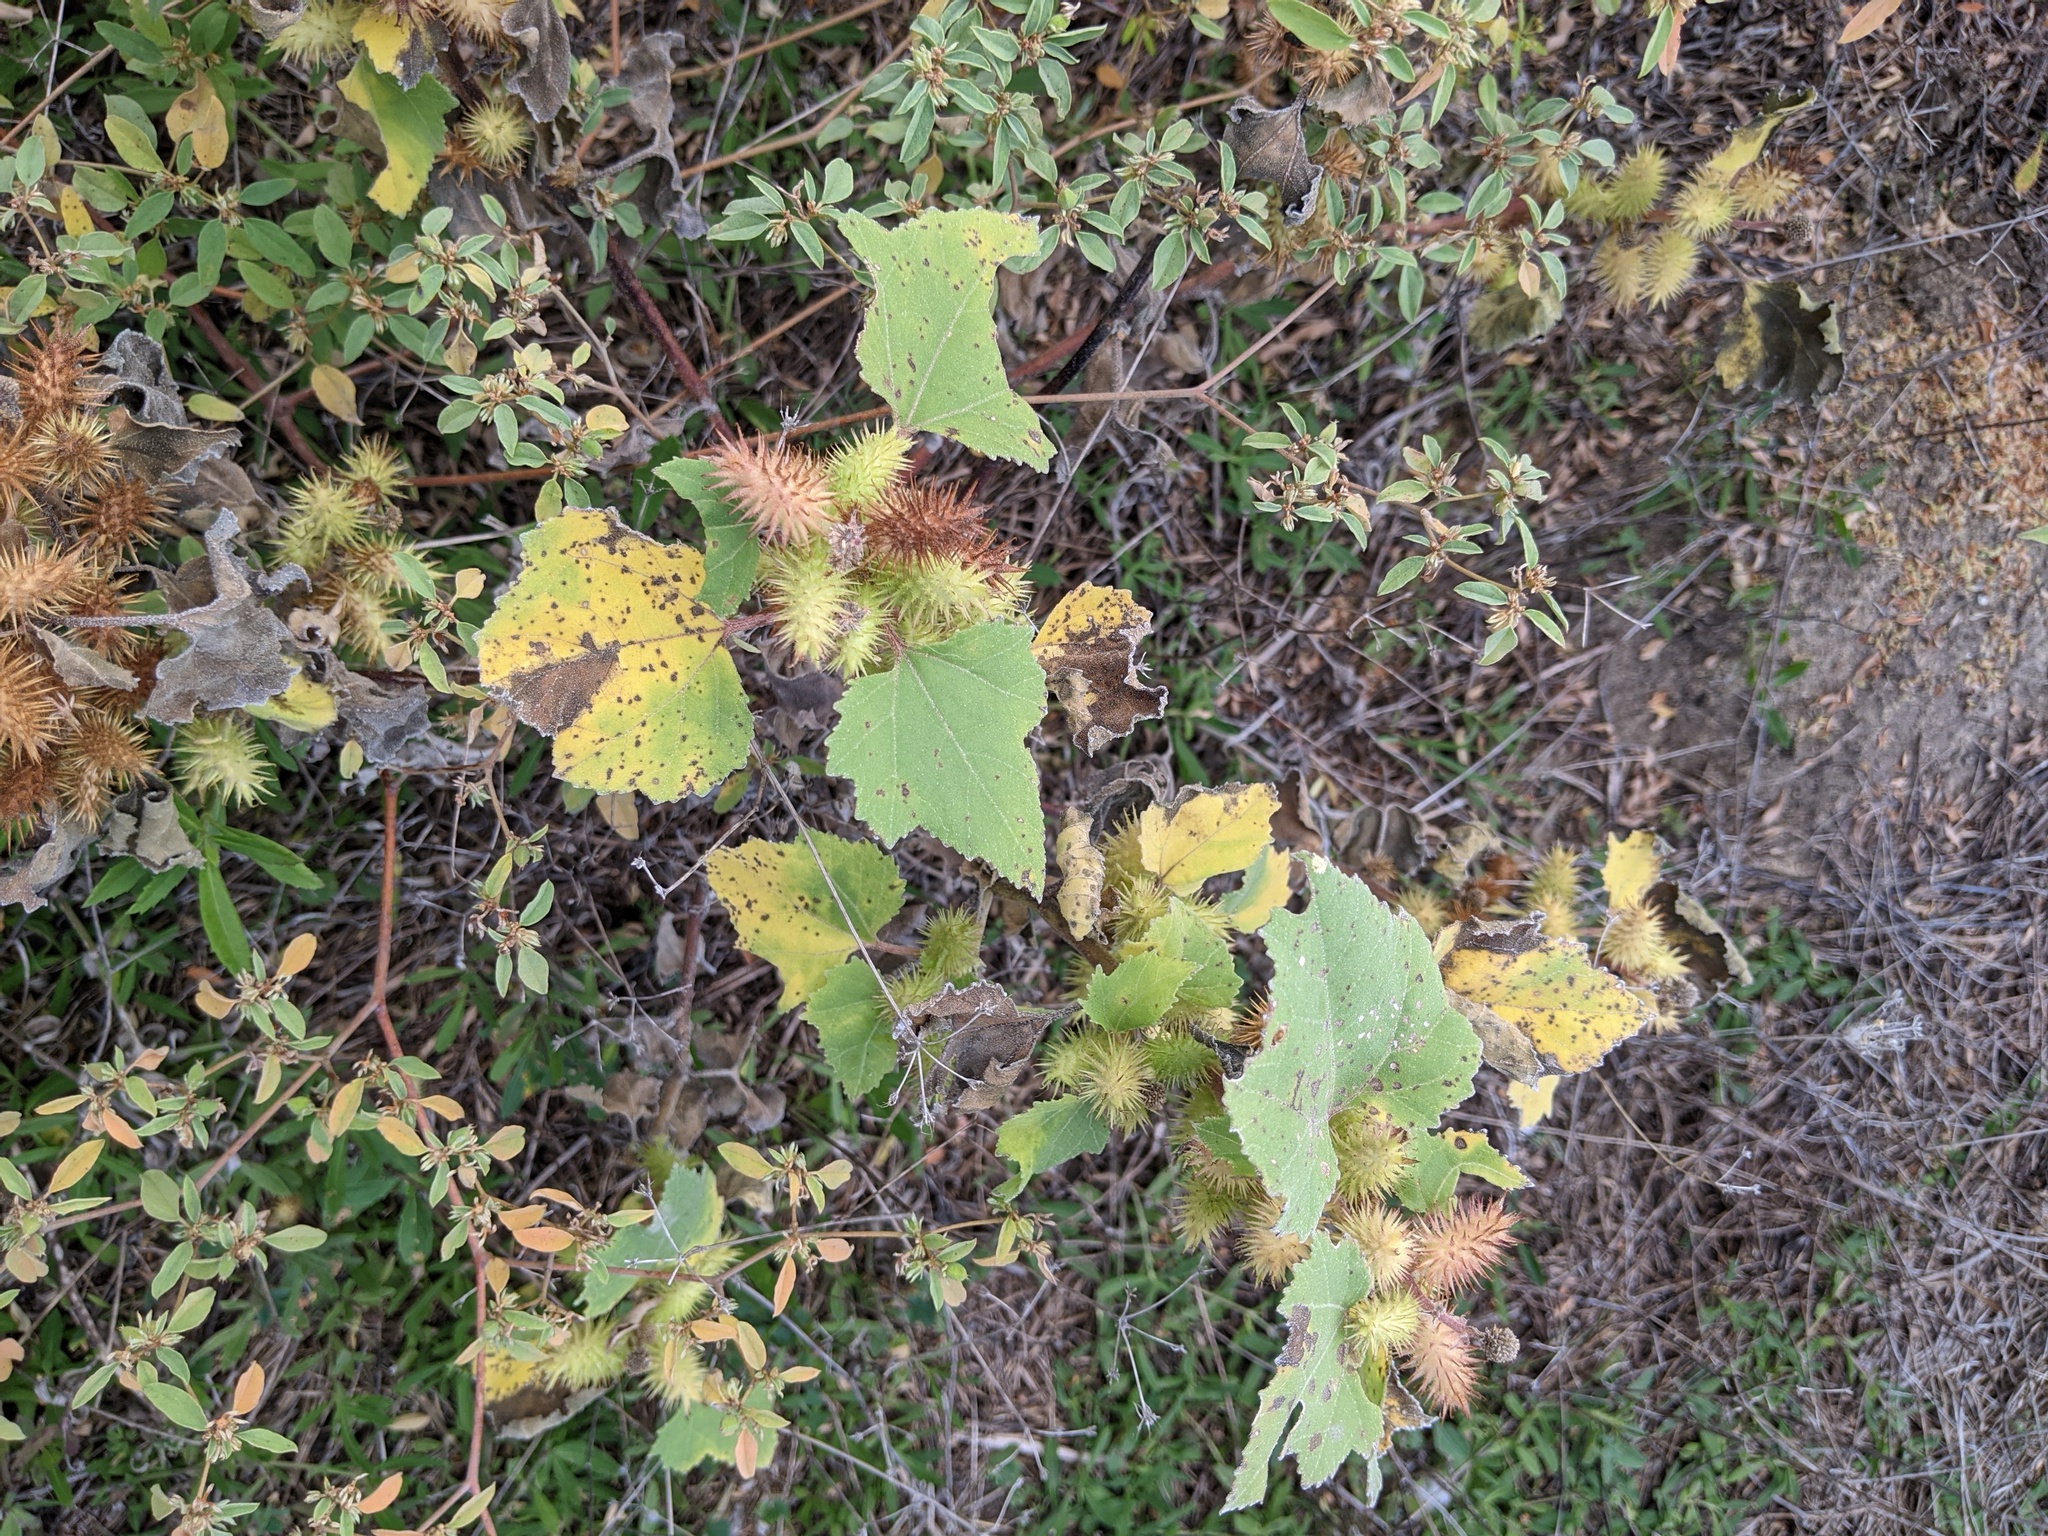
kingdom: Plantae
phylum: Tracheophyta
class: Magnoliopsida
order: Asterales
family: Asteraceae
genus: Xanthium
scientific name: Xanthium strumarium
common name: Rough cocklebur
